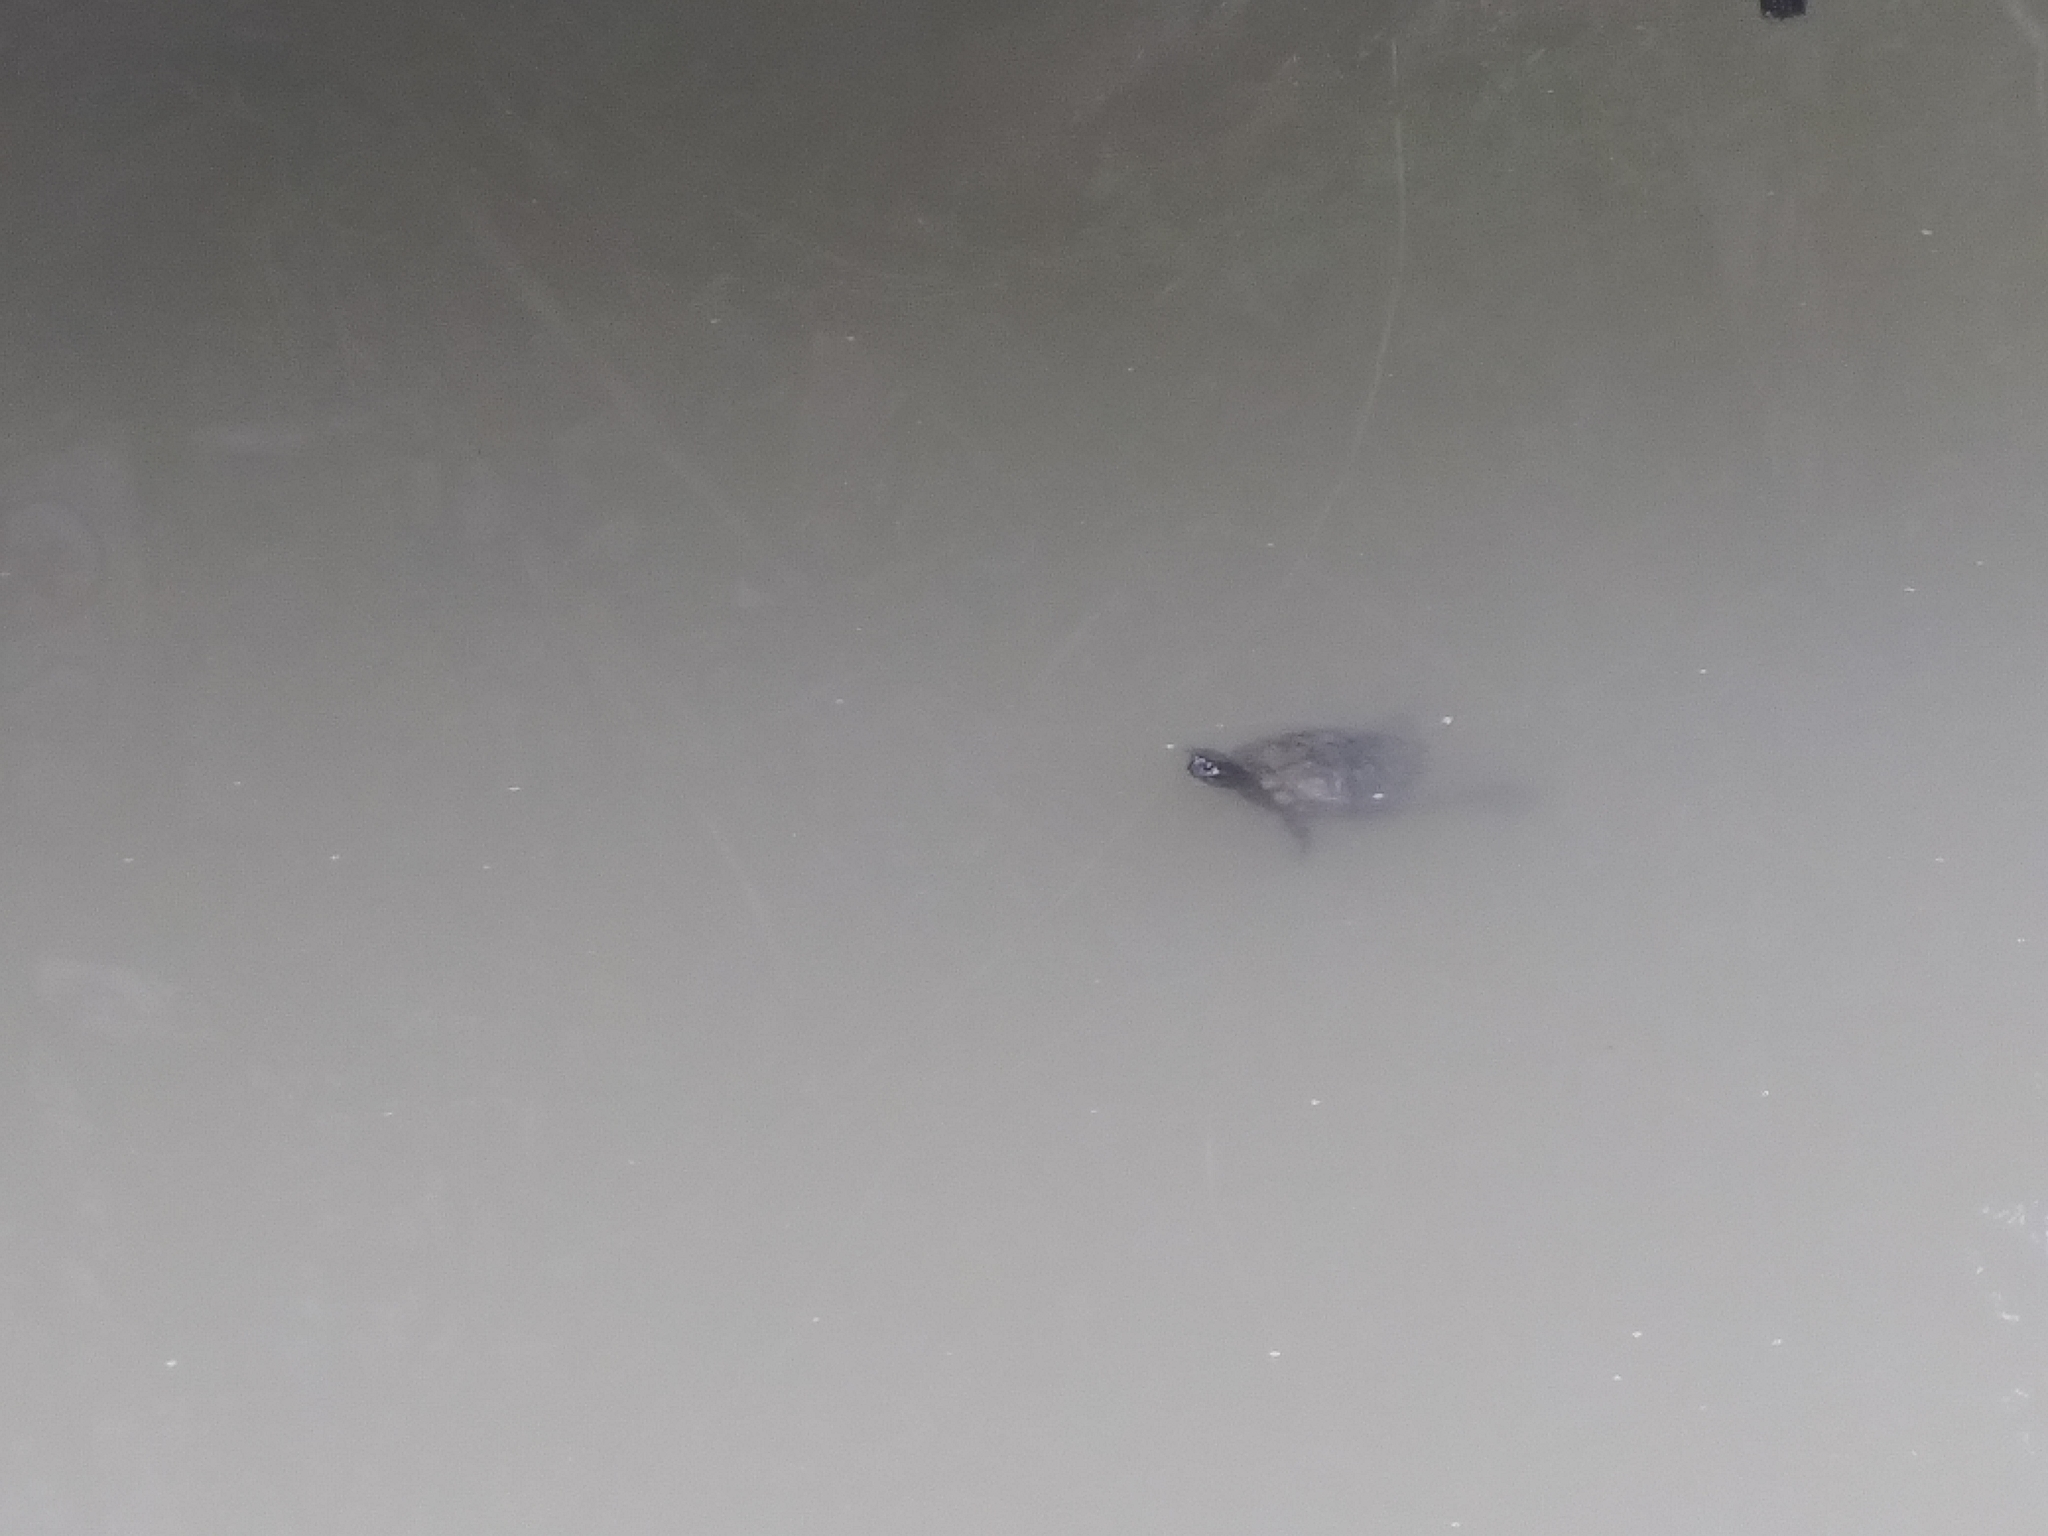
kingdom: Animalia
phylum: Chordata
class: Testudines
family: Emydidae
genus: Trachemys
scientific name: Trachemys scripta
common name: Slider
